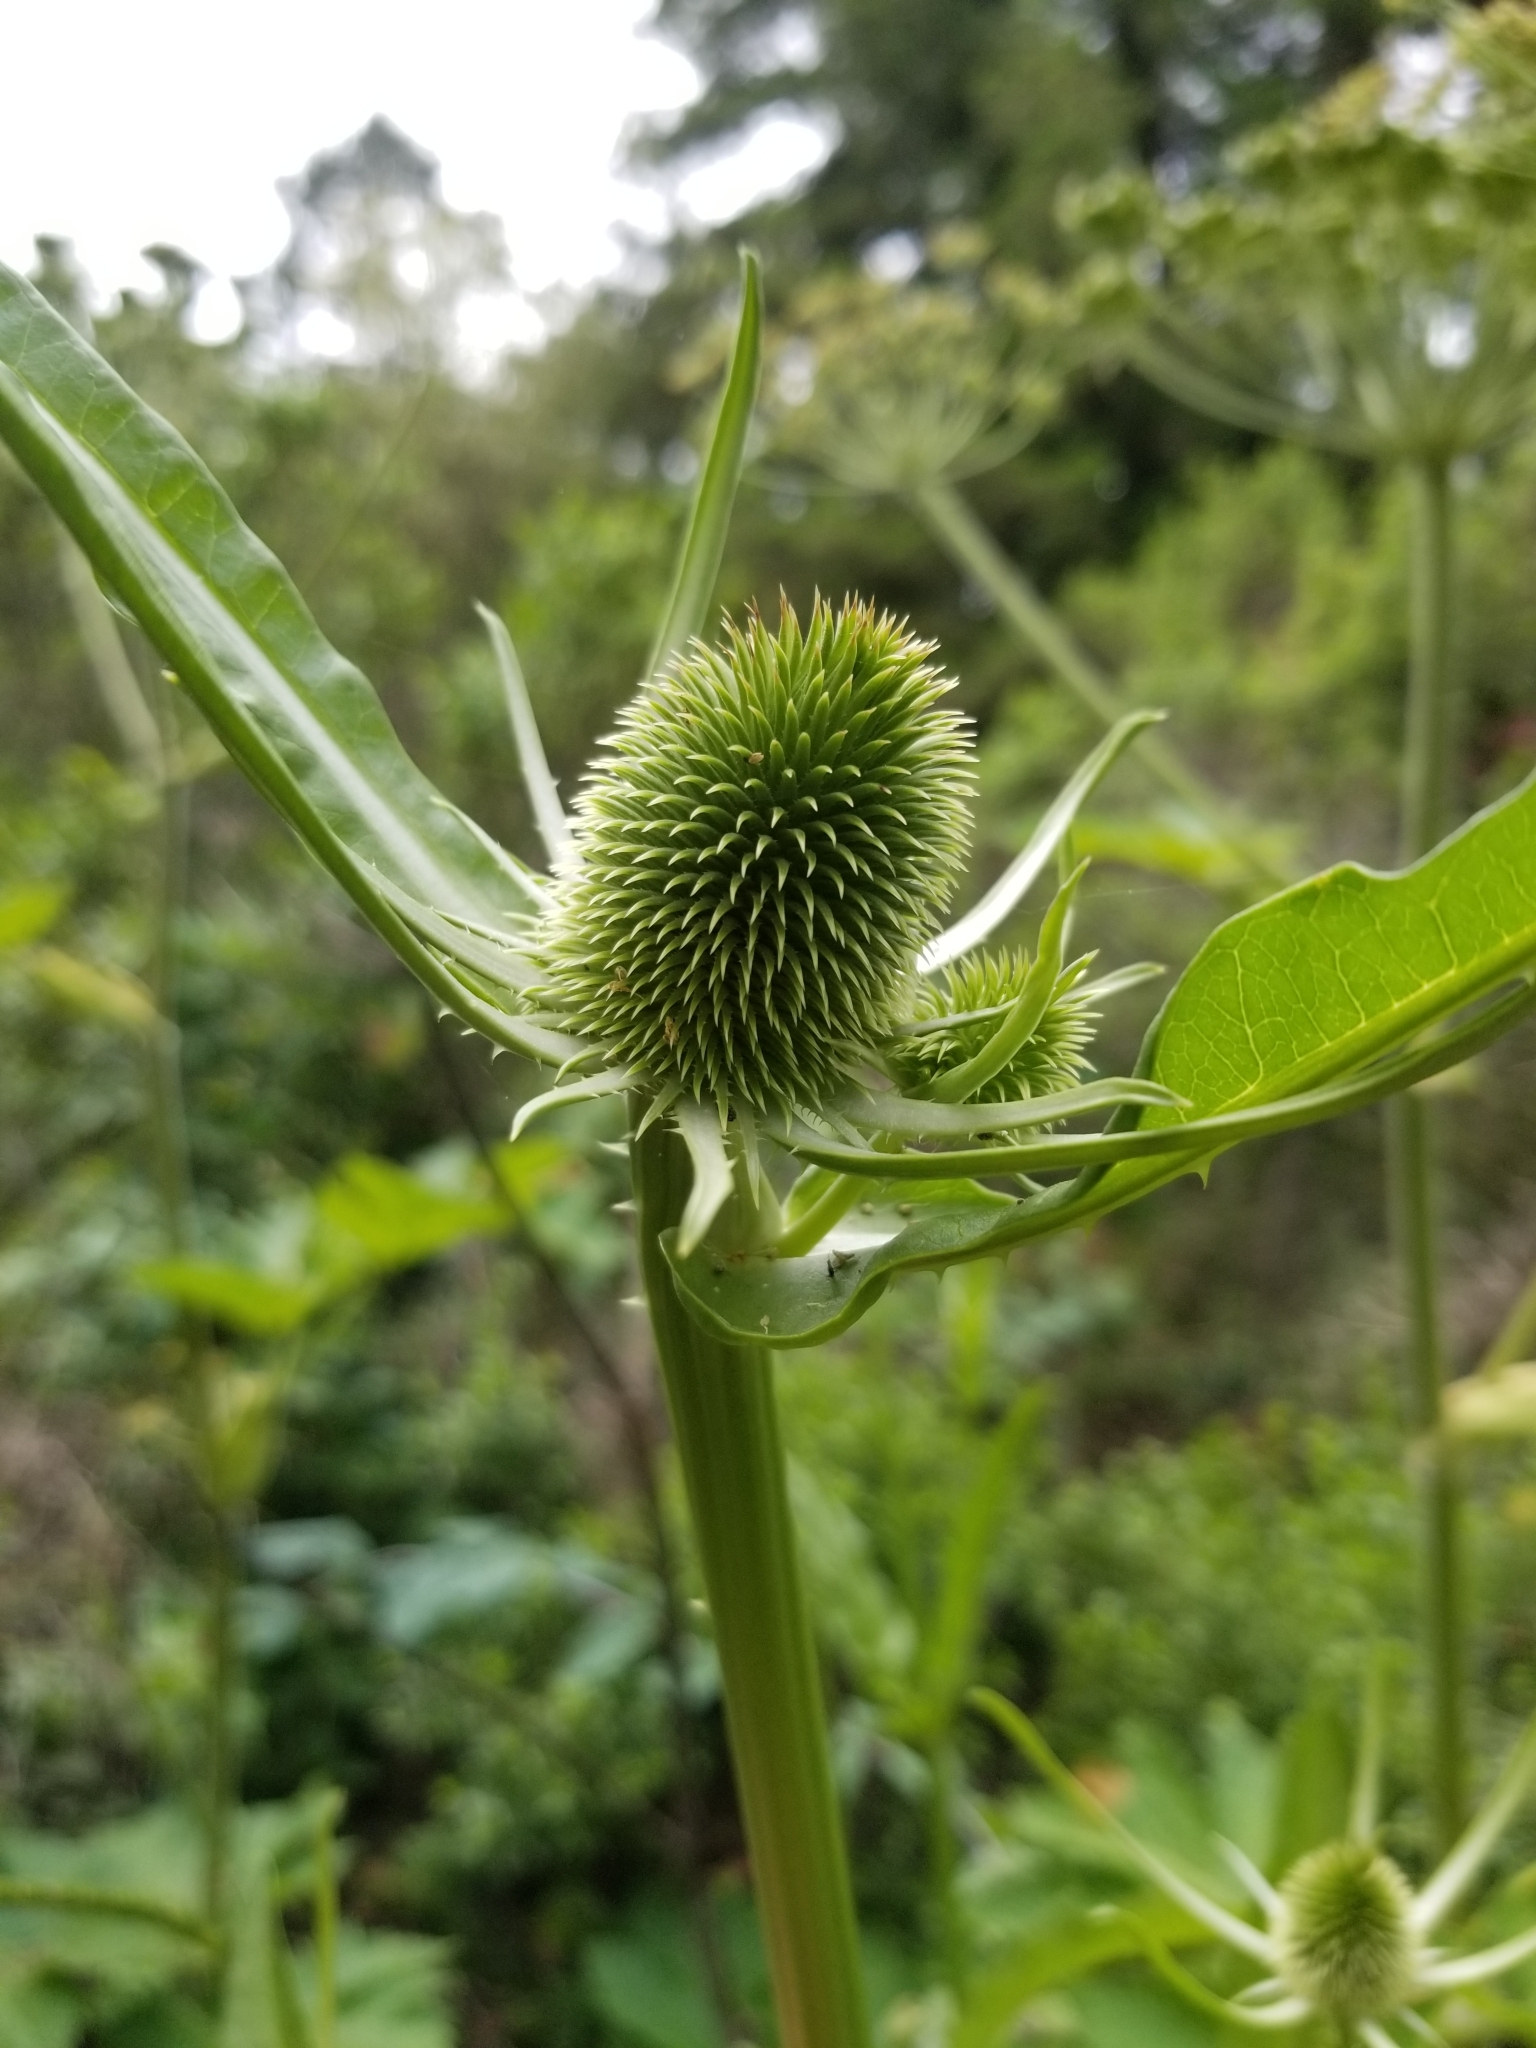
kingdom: Plantae
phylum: Tracheophyta
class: Magnoliopsida
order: Dipsacales
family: Caprifoliaceae
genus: Dipsacus
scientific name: Dipsacus sativus
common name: Fuller's teasel
